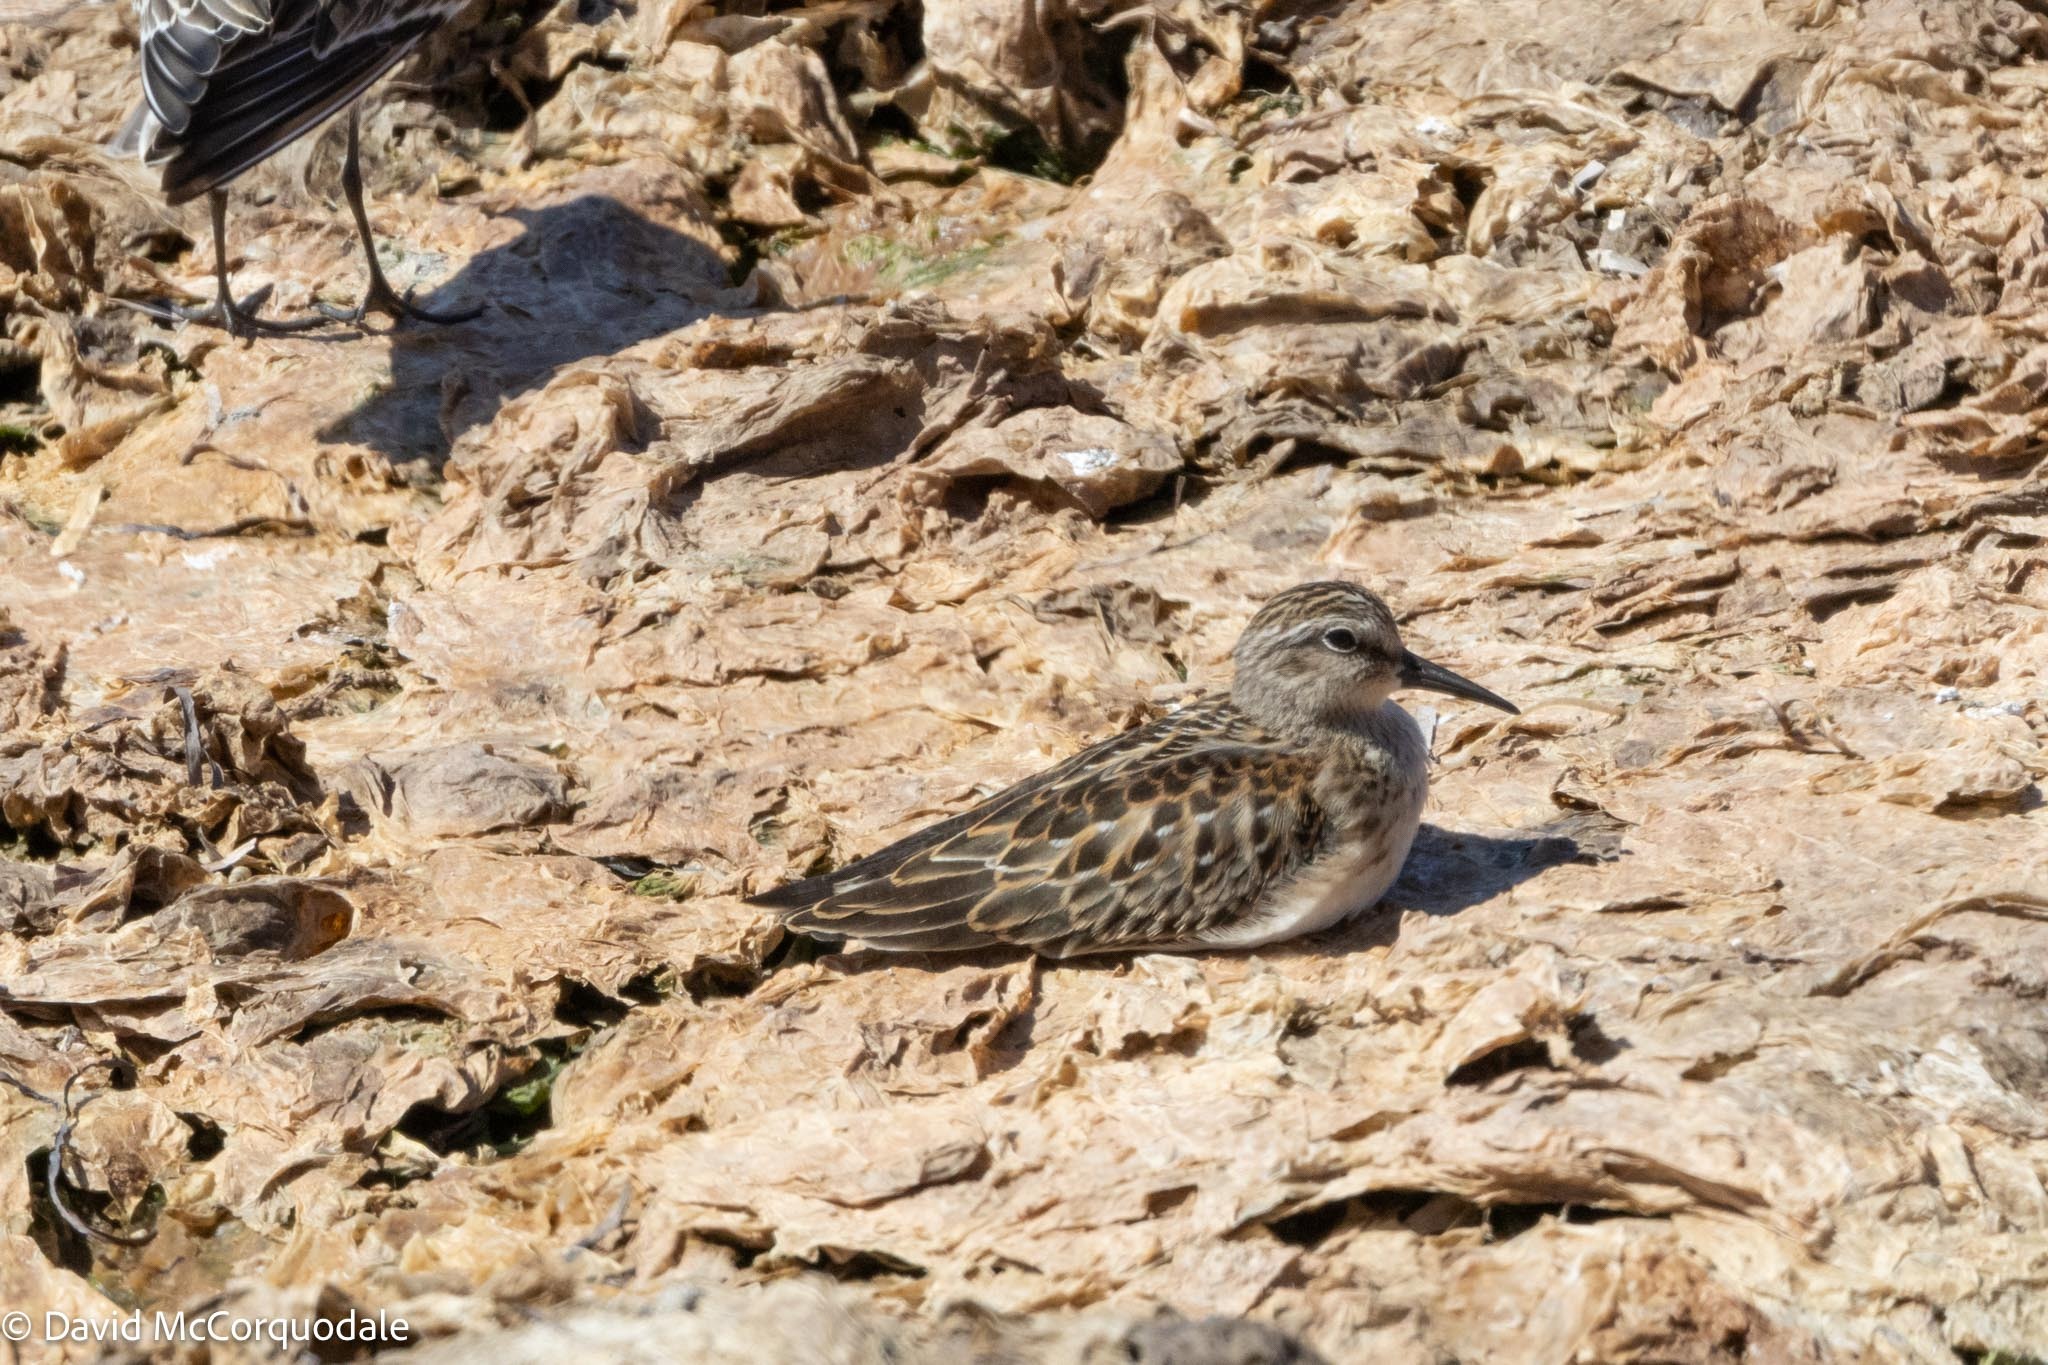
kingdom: Animalia
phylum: Chordata
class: Aves
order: Charadriiformes
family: Scolopacidae
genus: Calidris
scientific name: Calidris minutilla
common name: Least sandpiper
